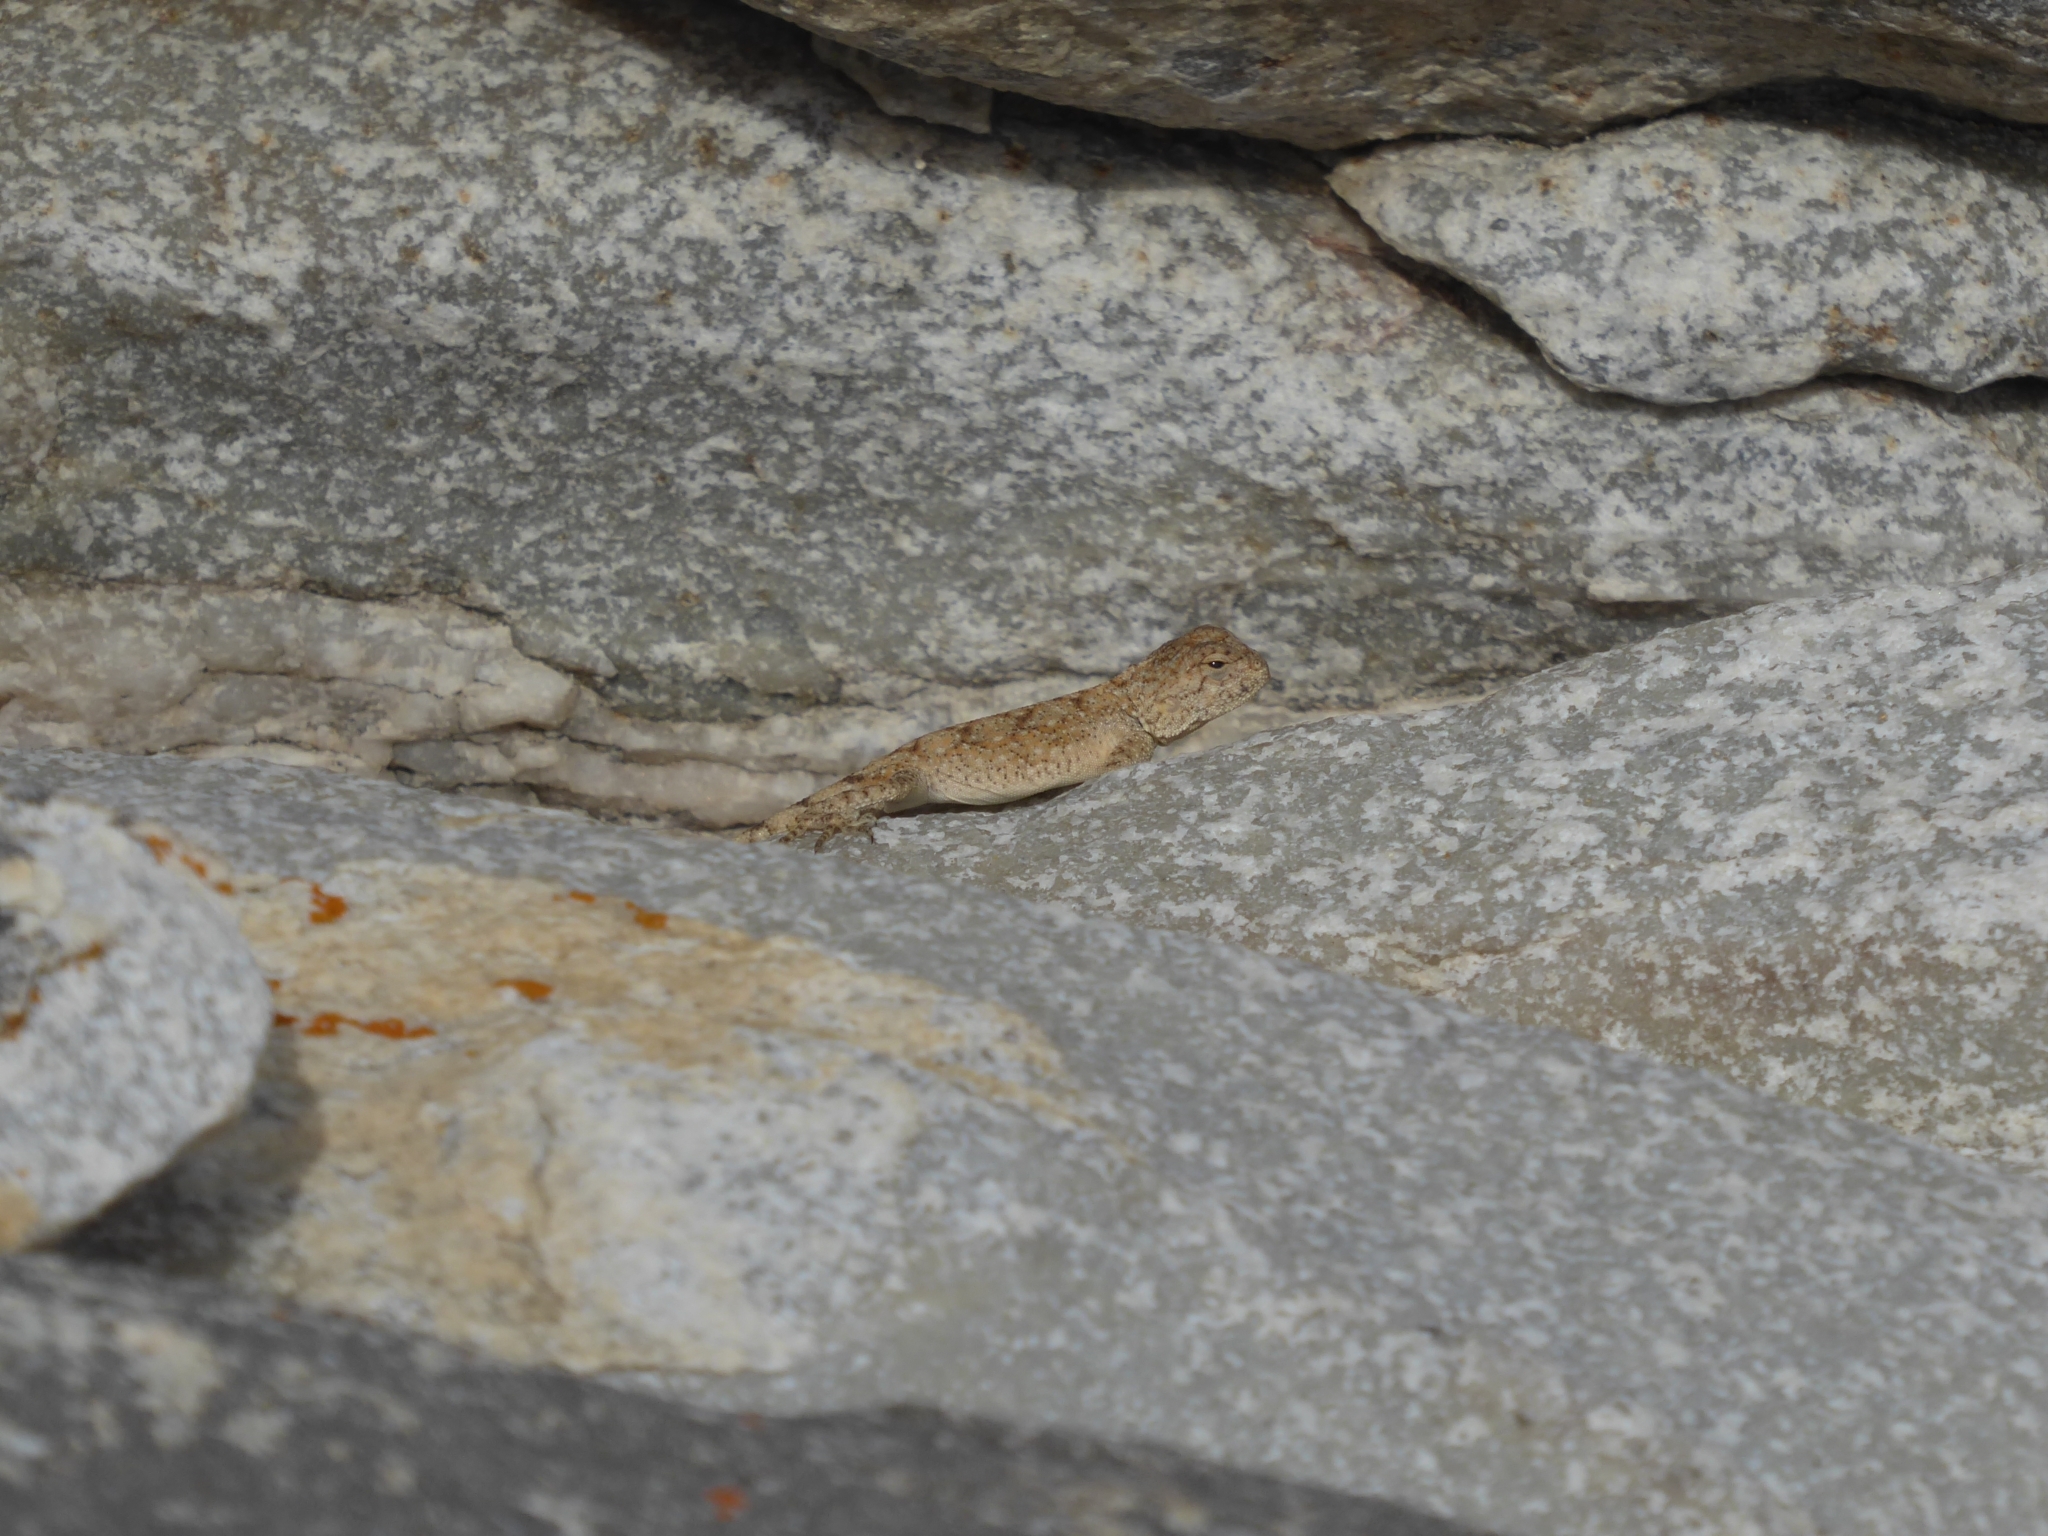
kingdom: Animalia
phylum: Chordata
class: Squamata
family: Agamidae
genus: Agama
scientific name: Agama atra
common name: Southern african rock agama
